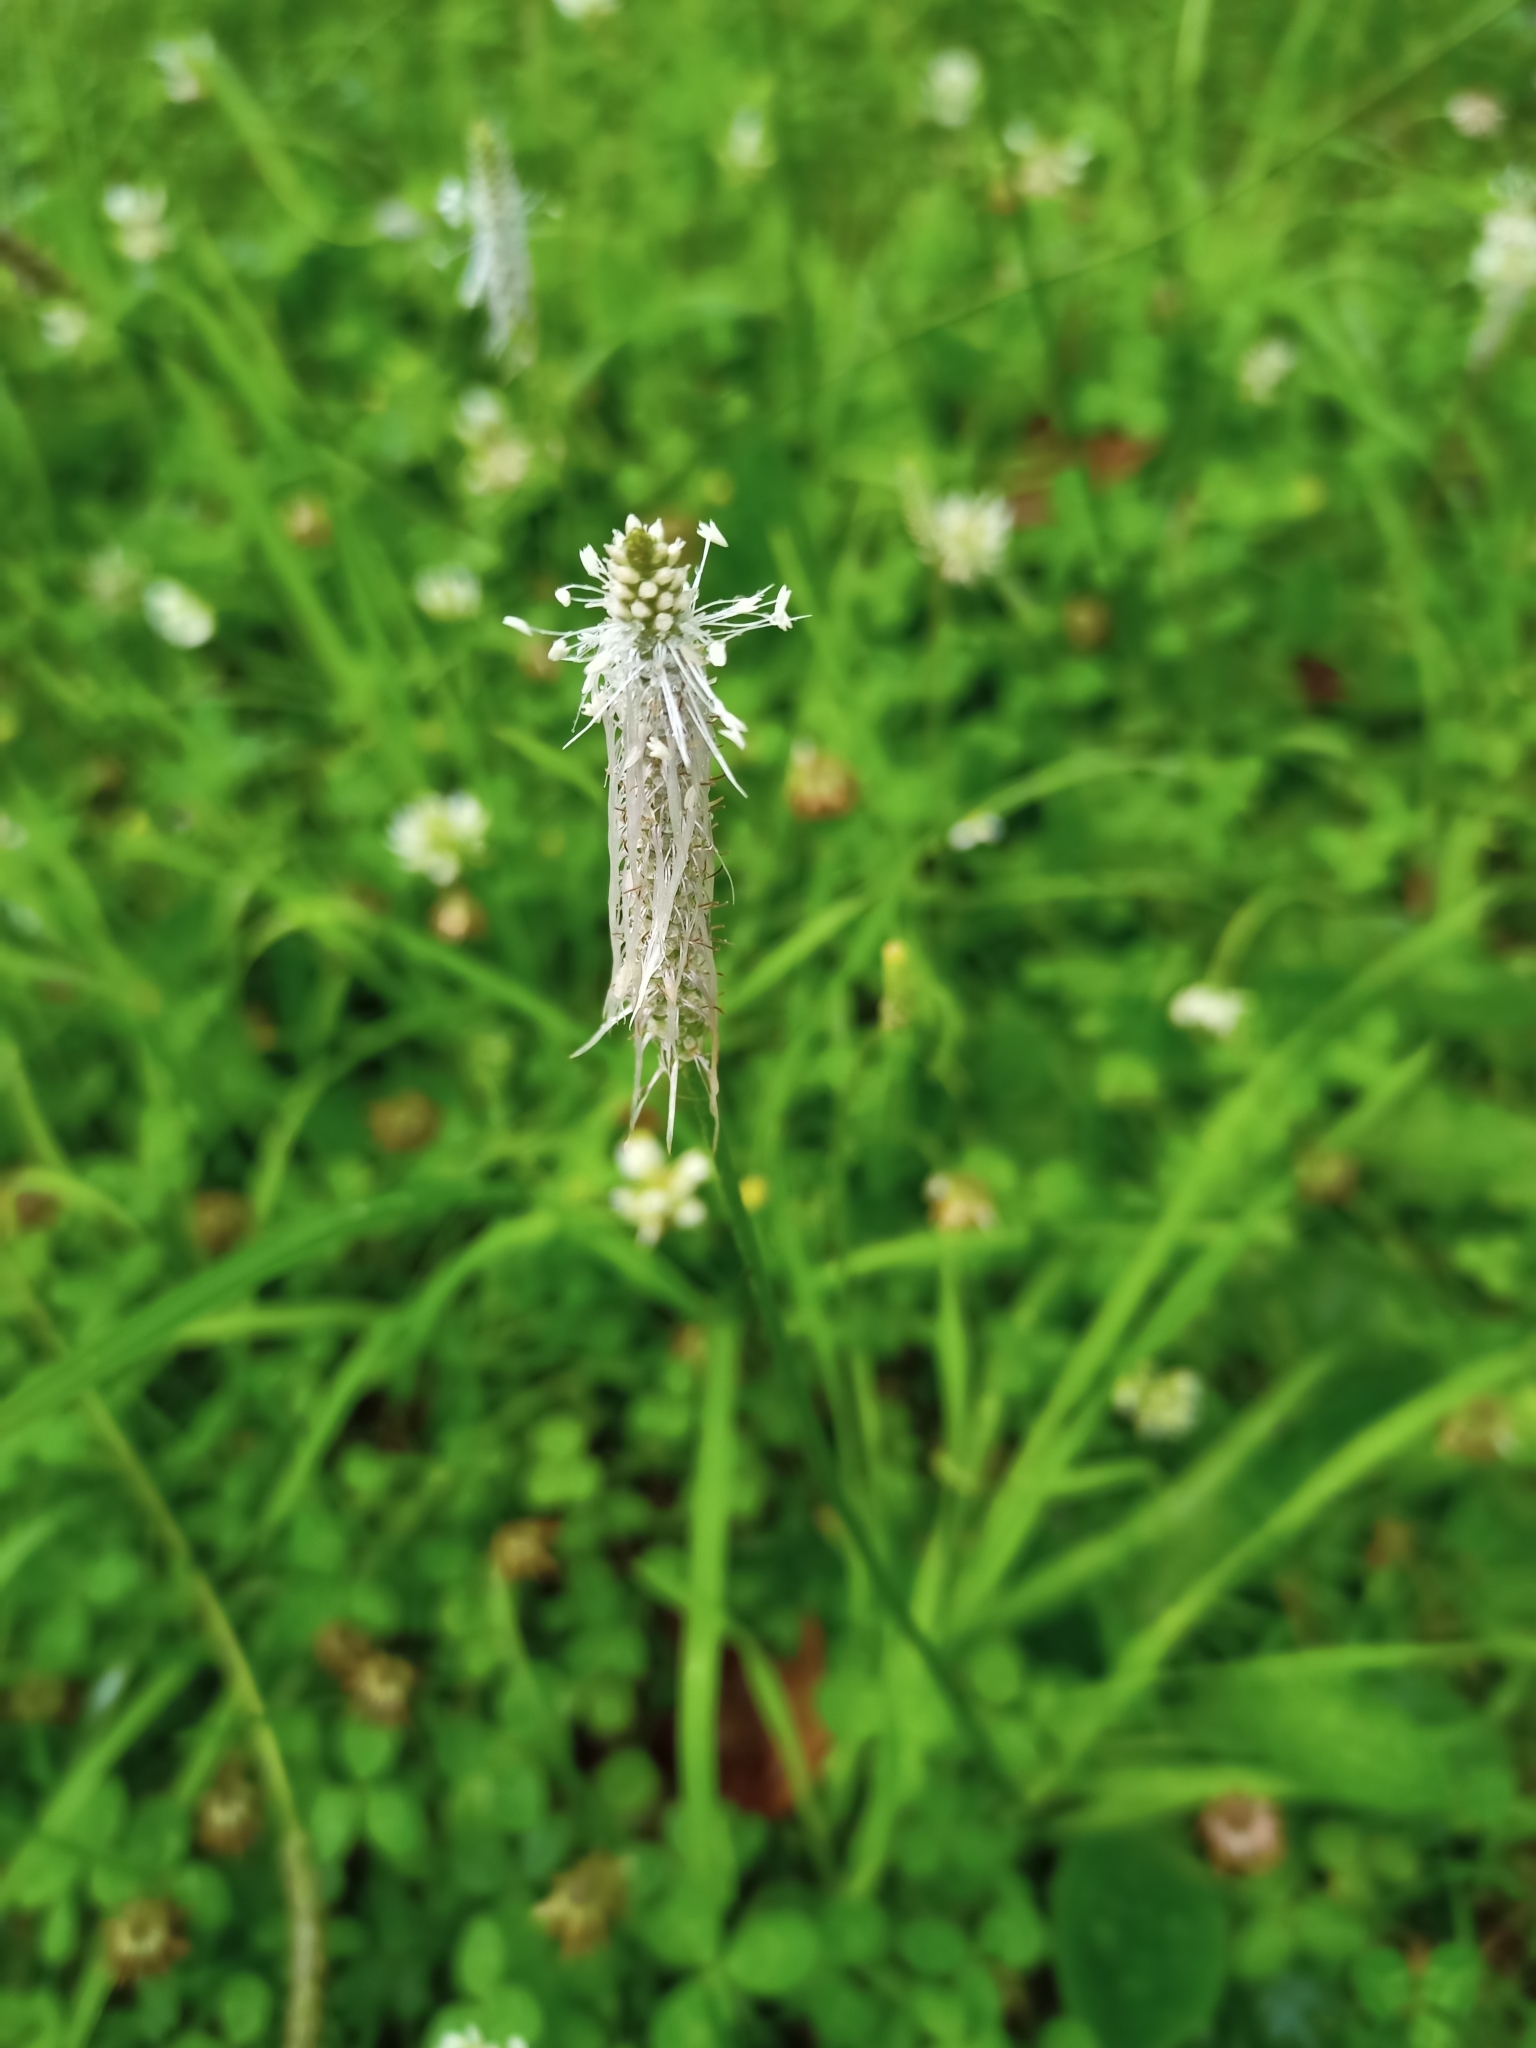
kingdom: Plantae
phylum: Tracheophyta
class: Magnoliopsida
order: Lamiales
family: Plantaginaceae
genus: Plantago
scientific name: Plantago media
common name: Hoary plantain
